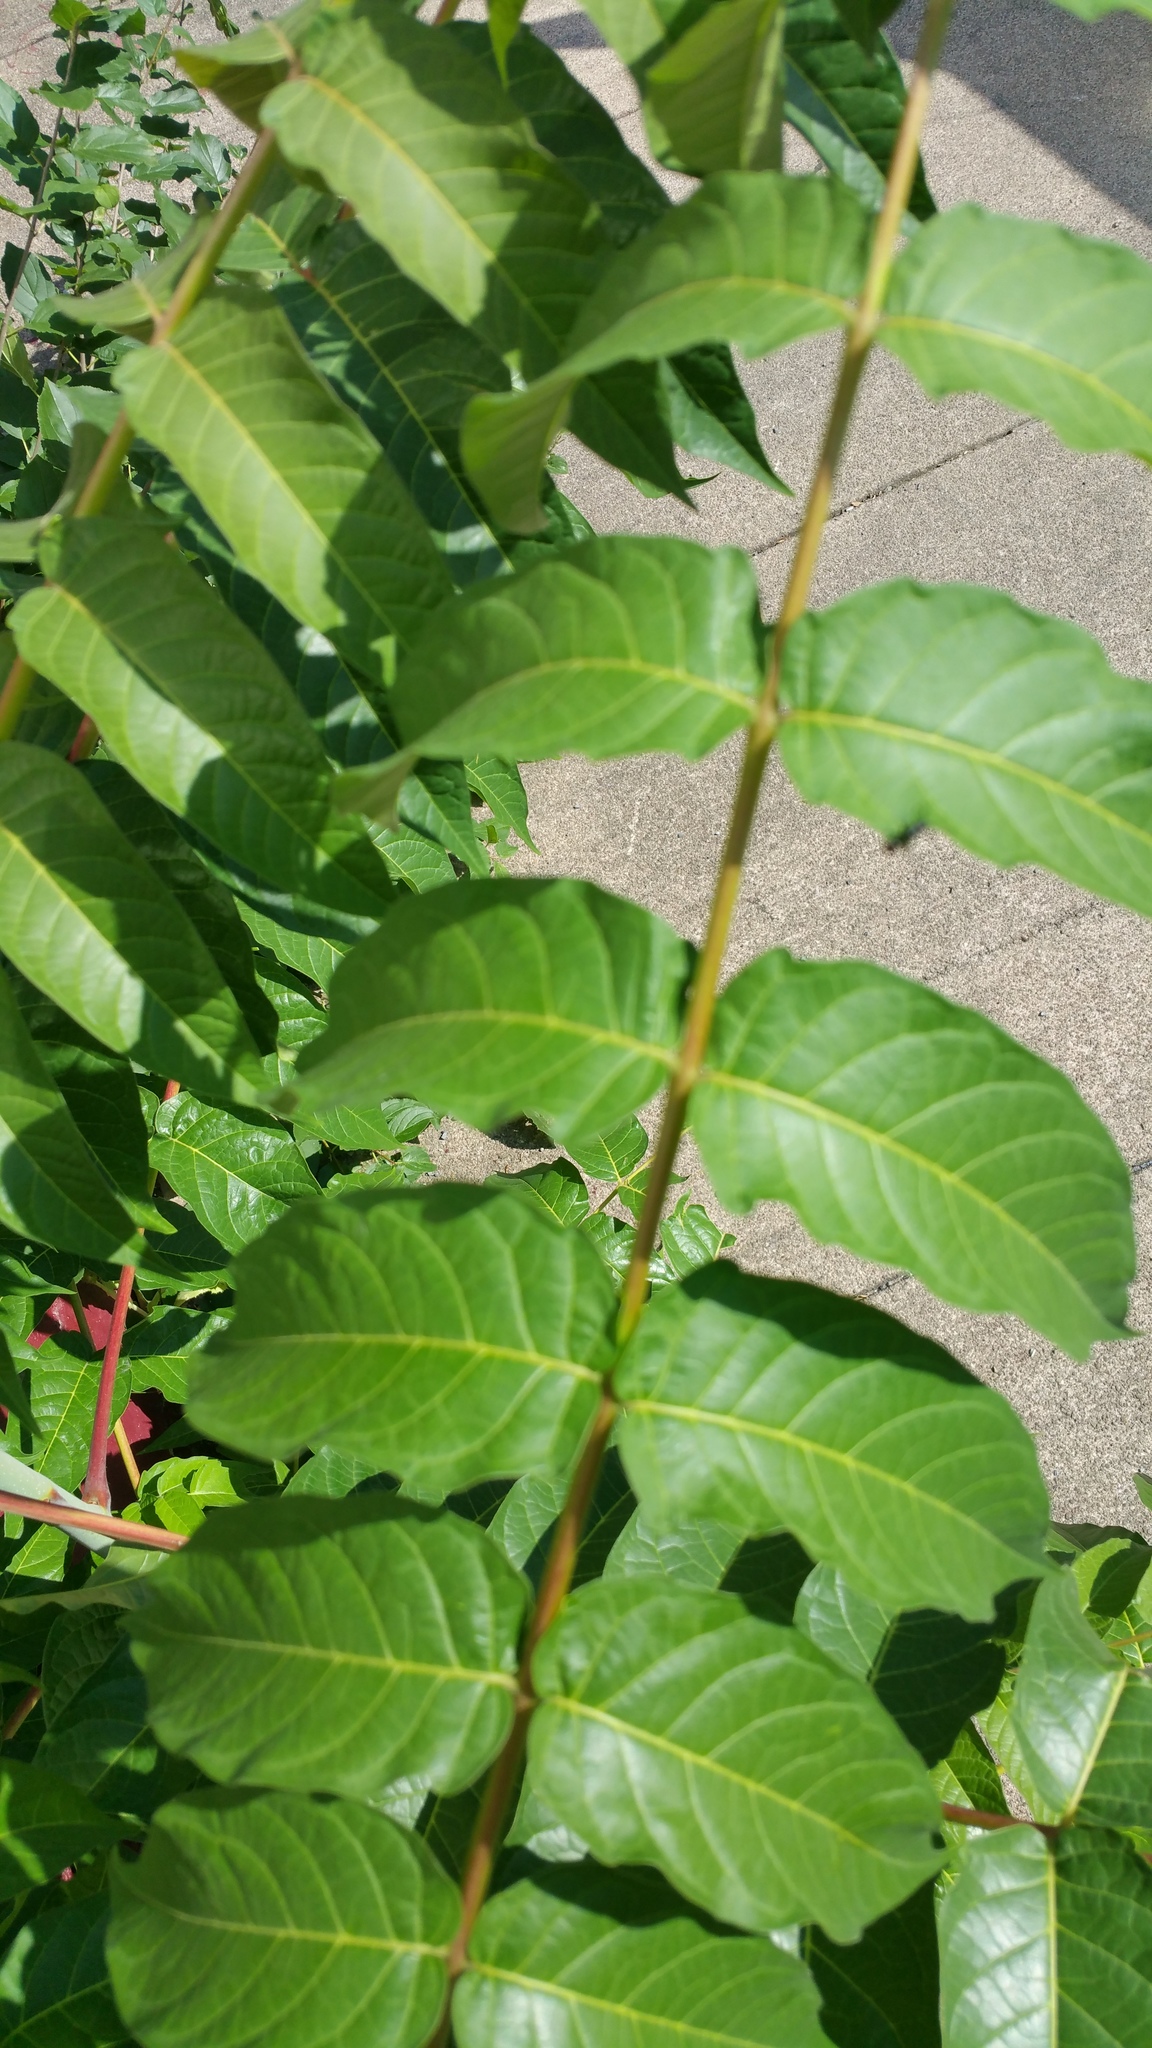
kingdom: Plantae
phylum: Tracheophyta
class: Magnoliopsida
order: Sapindales
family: Simaroubaceae
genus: Ailanthus
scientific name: Ailanthus altissima
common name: Tree-of-heaven
